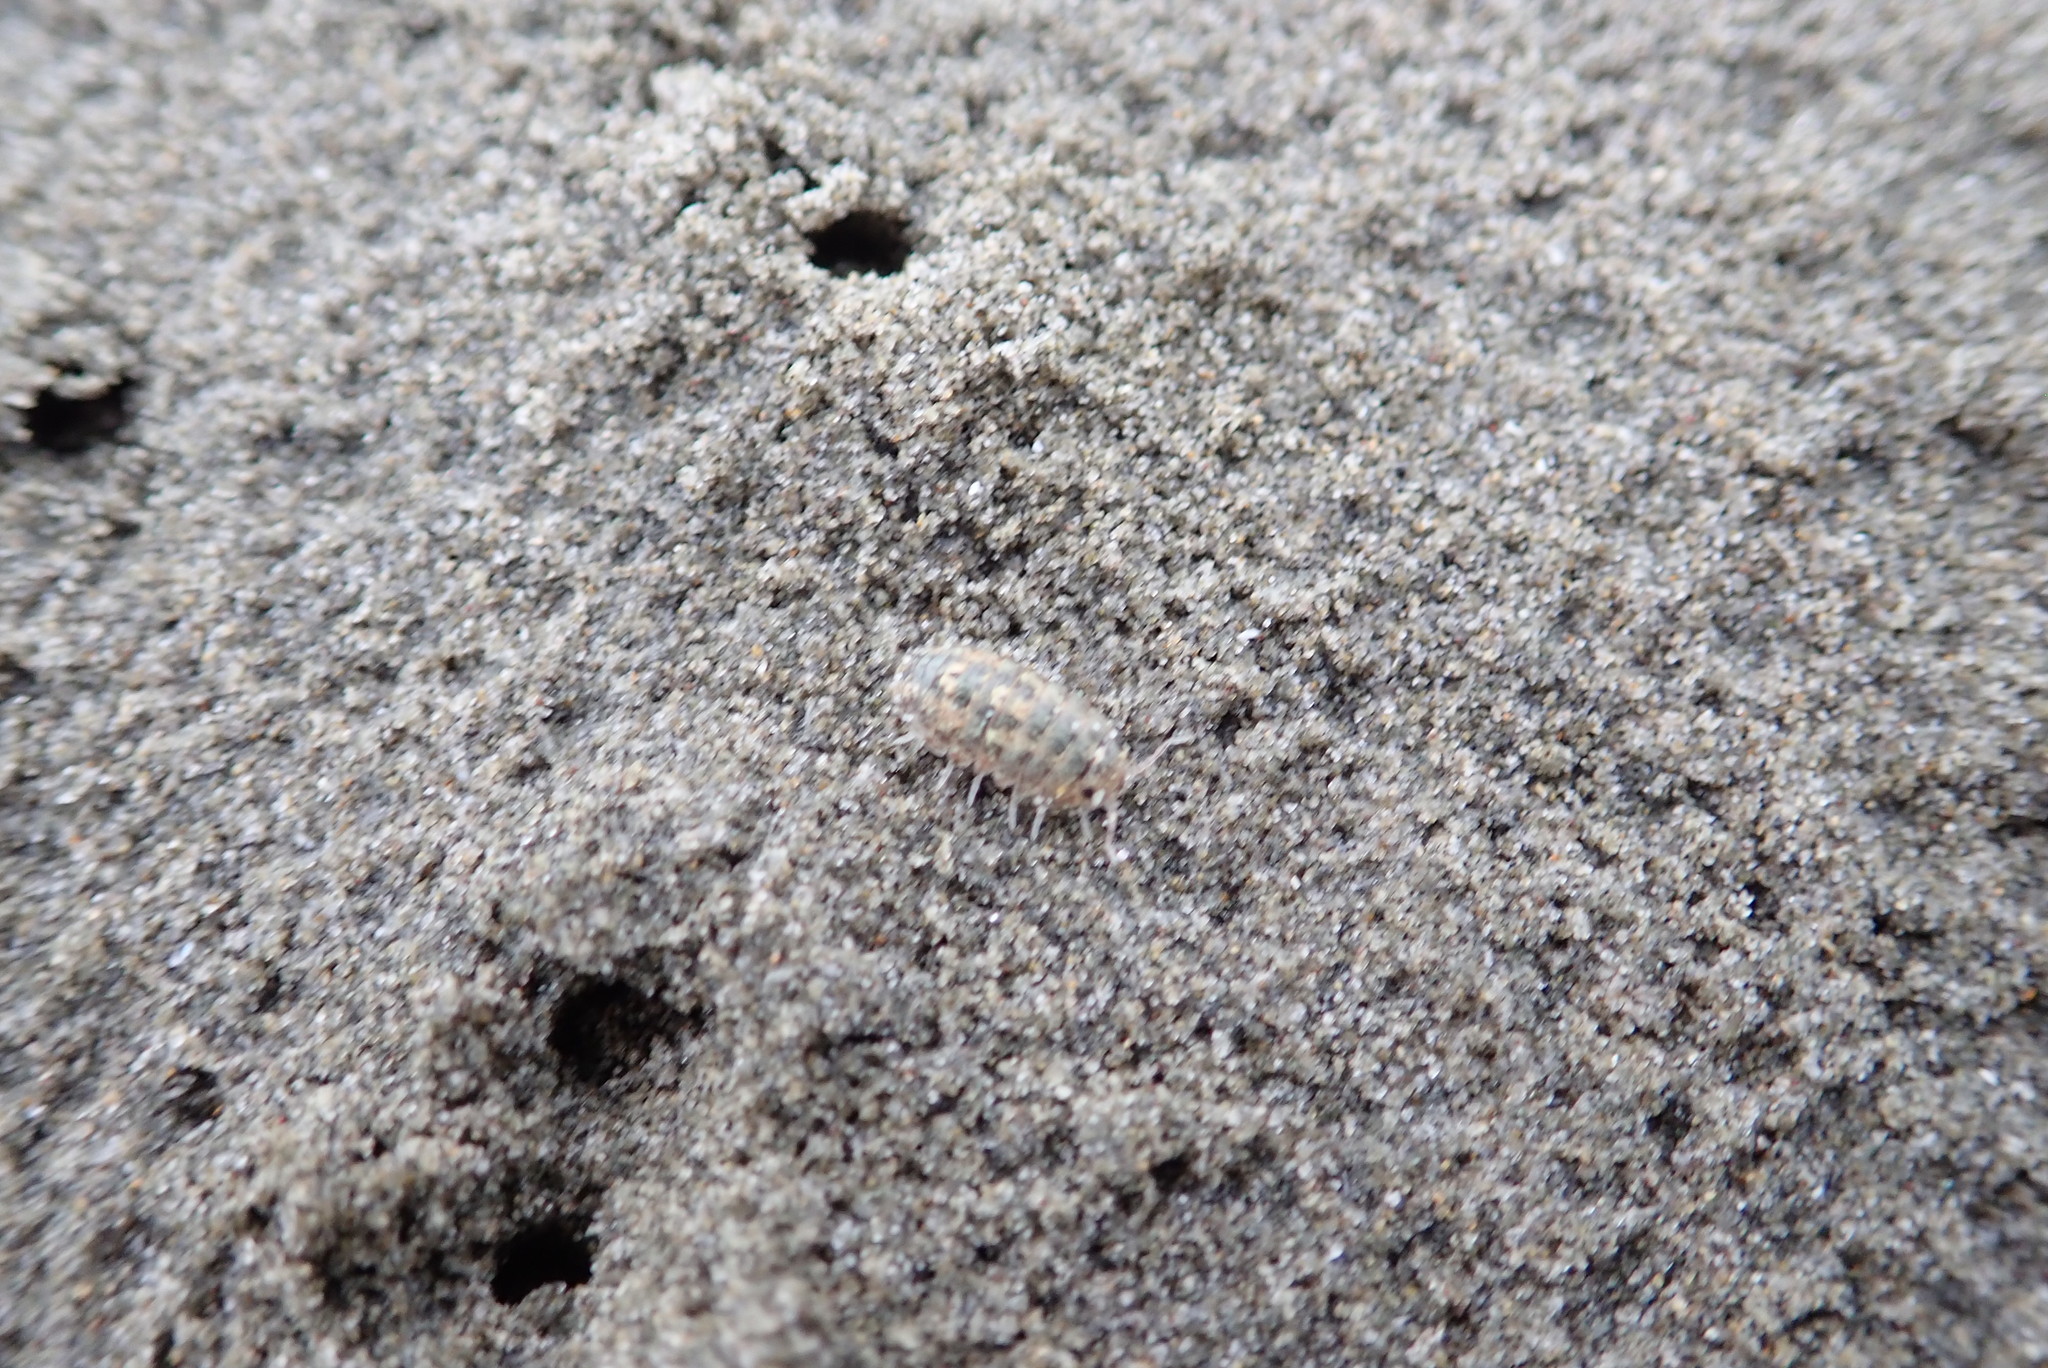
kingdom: Animalia
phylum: Arthropoda
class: Malacostraca
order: Isopoda
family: Tylidae
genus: Tylos
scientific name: Tylos neozelanicus
